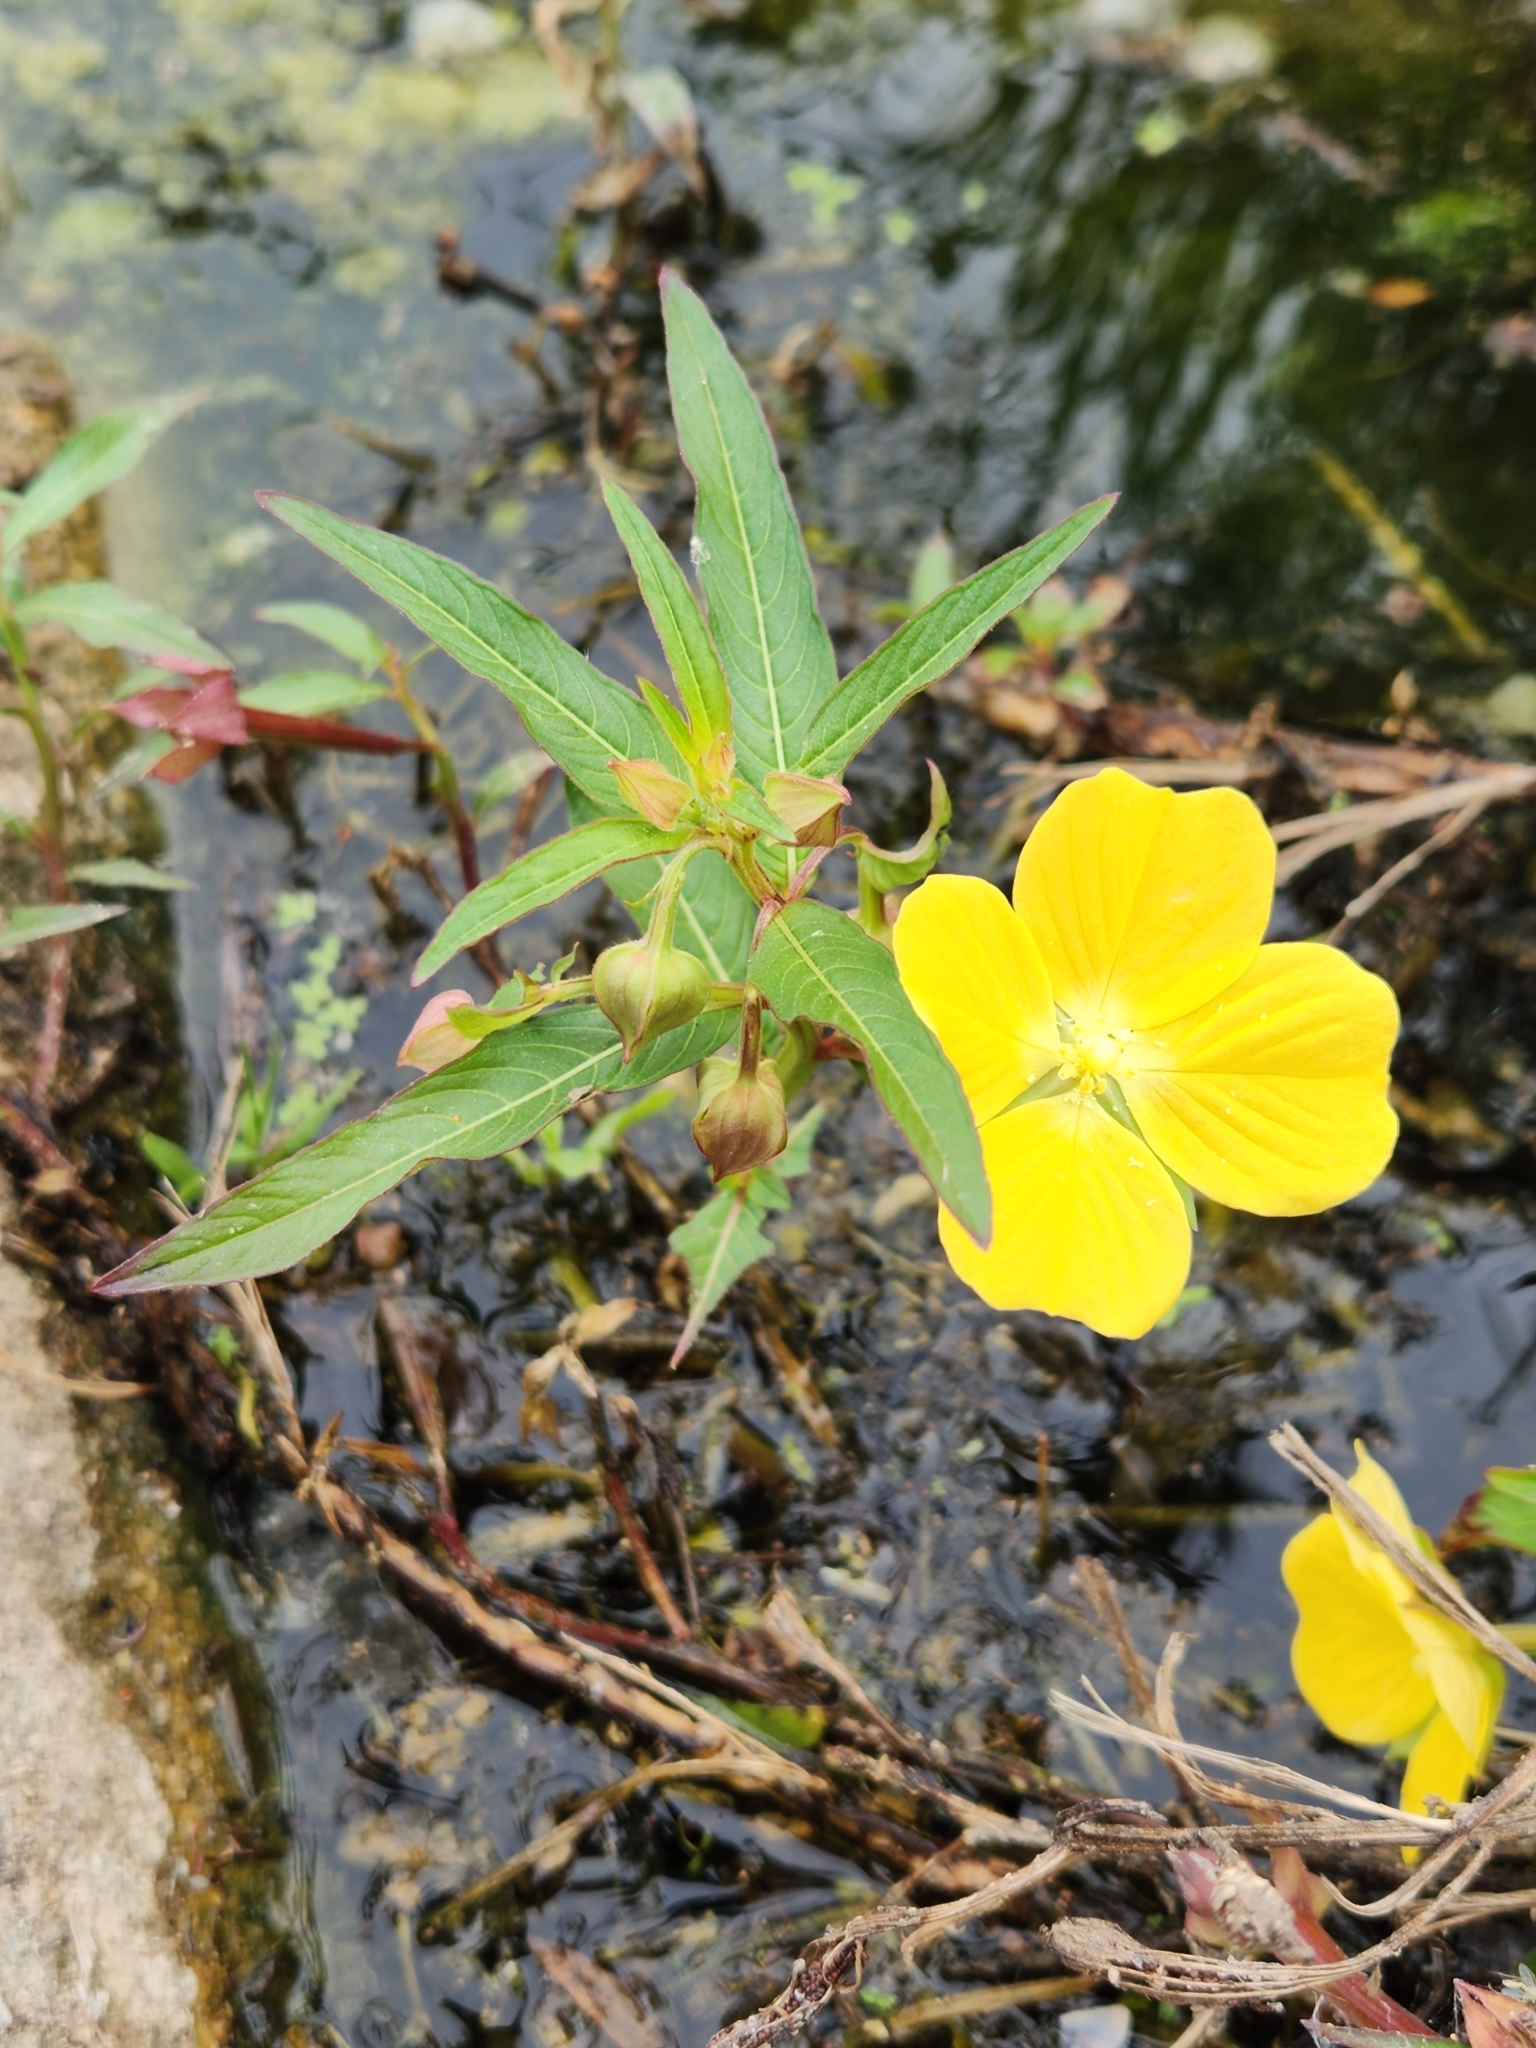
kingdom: Plantae
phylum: Tracheophyta
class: Magnoliopsida
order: Myrtales
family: Onagraceae
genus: Ludwigia
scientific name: Ludwigia octovalvis
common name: Water-primrose
